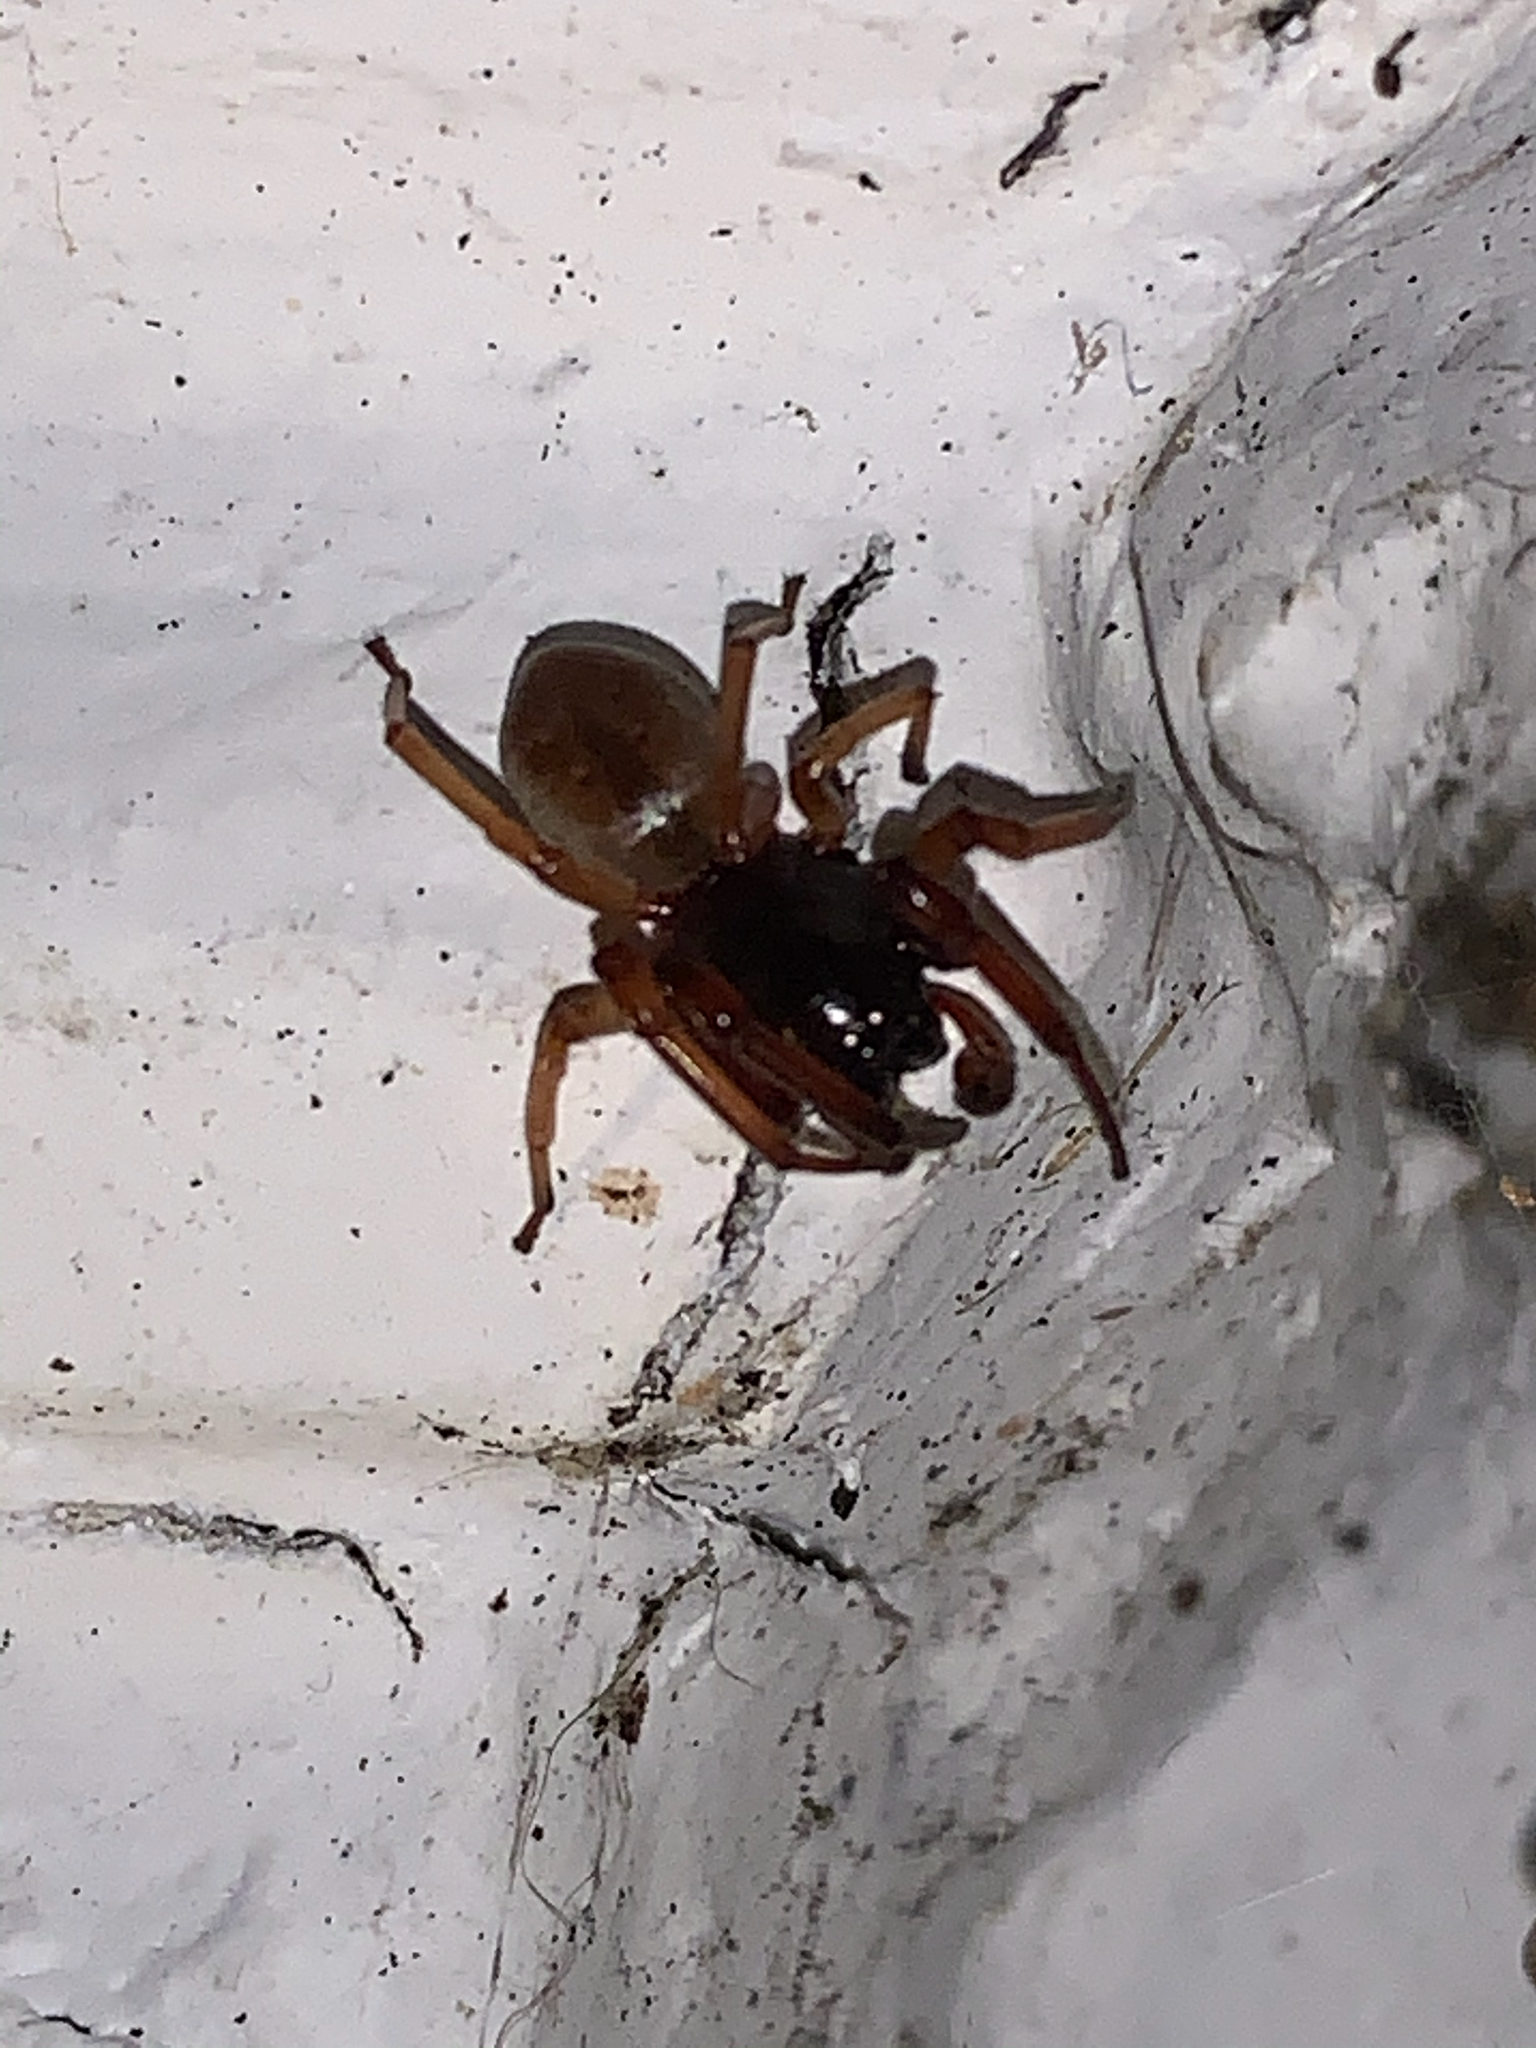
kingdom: Animalia
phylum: Arthropoda
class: Arachnida
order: Araneae
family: Trachelidae
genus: Trachelas
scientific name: Trachelas tranquillus
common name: Broad-faced sac spider
